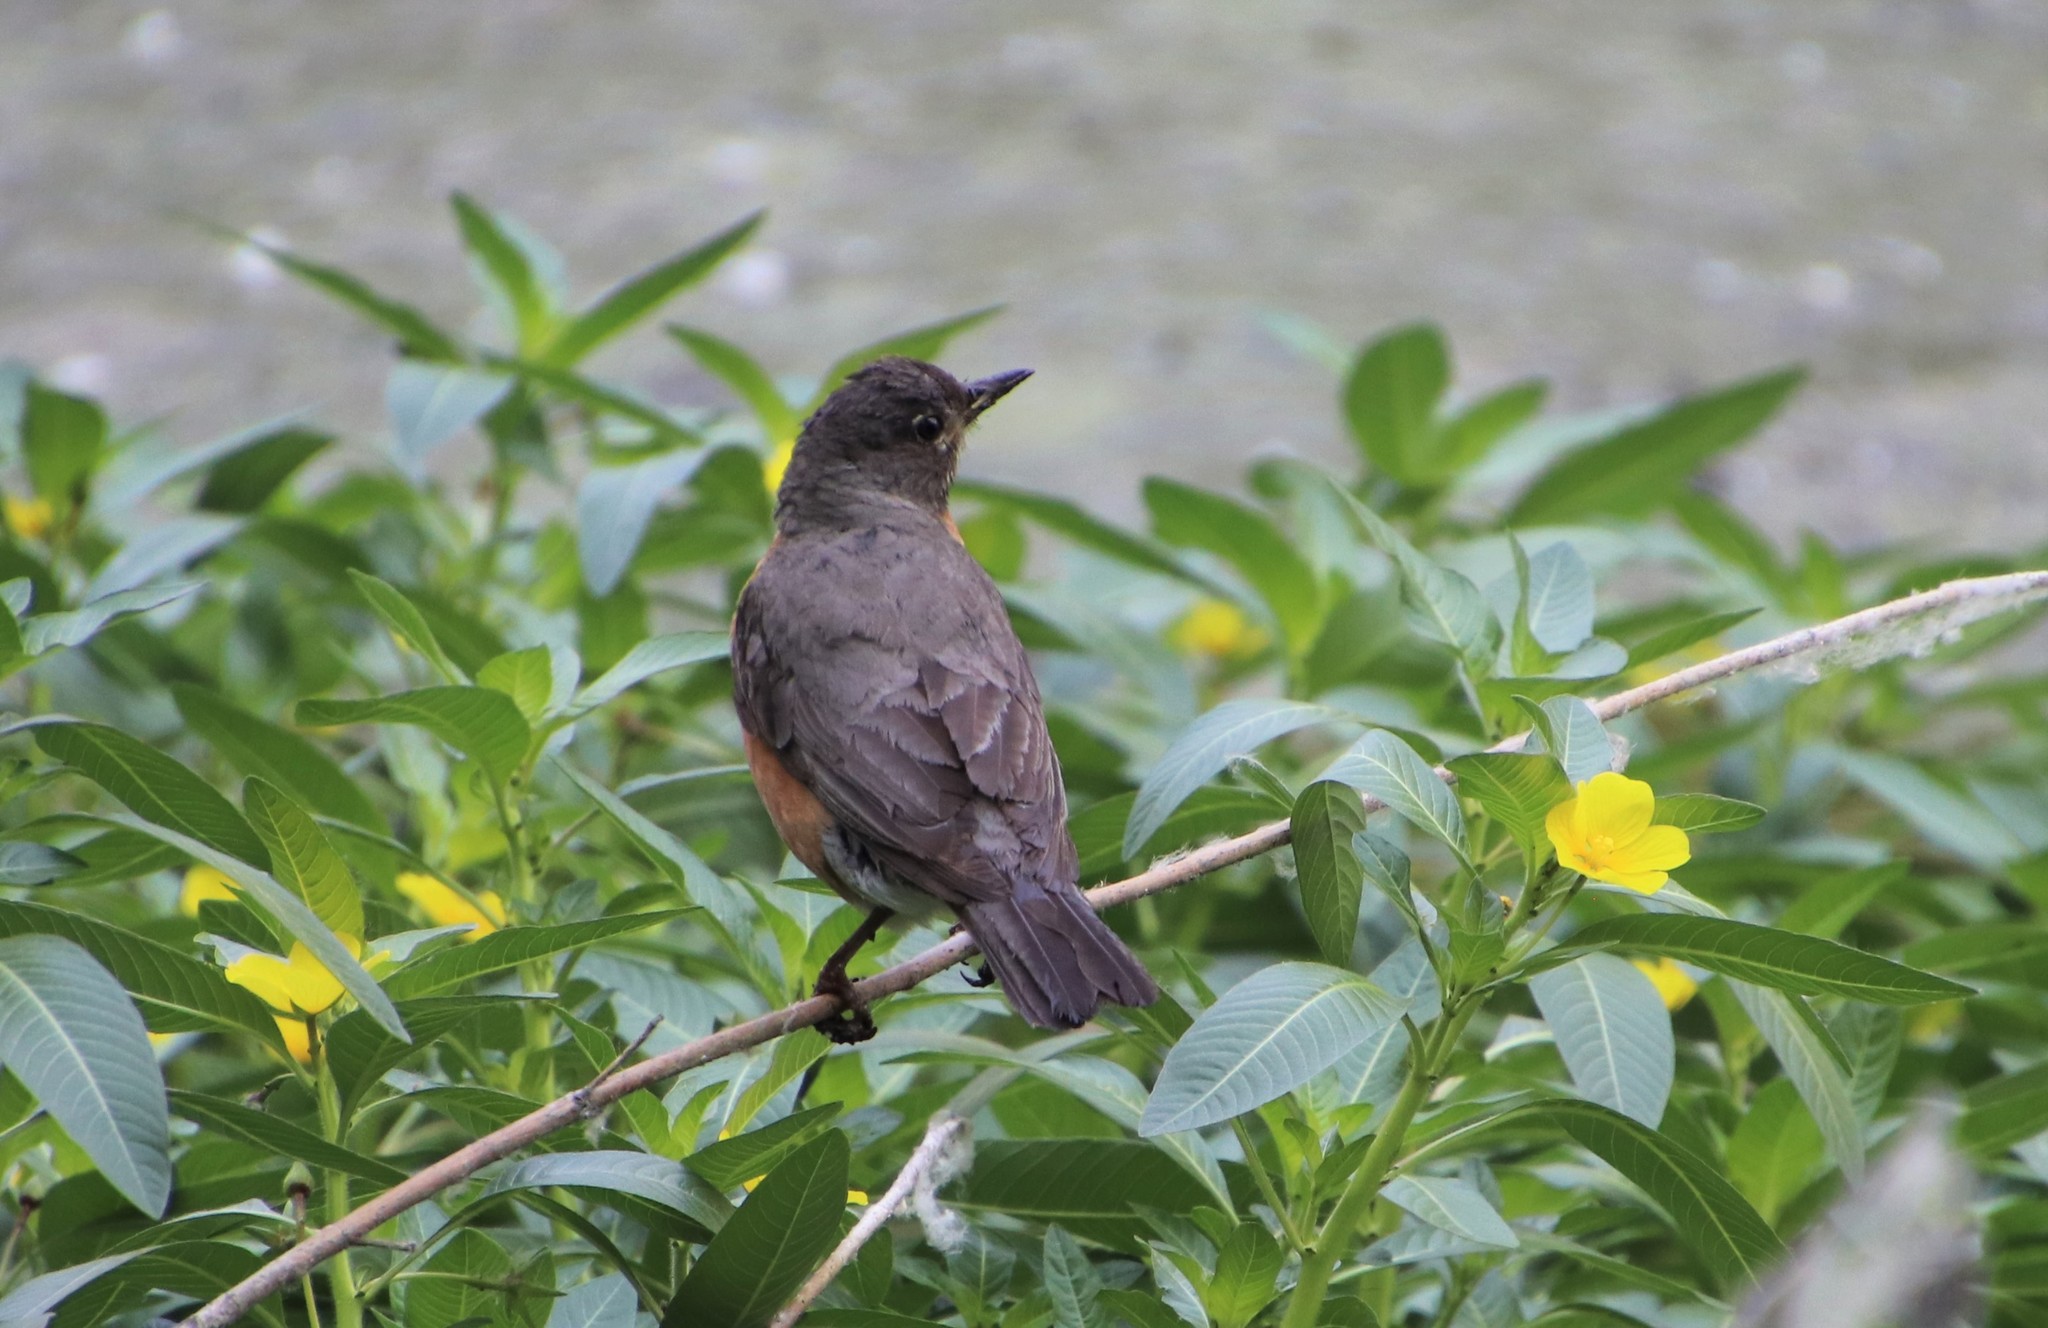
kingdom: Animalia
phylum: Chordata
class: Aves
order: Passeriformes
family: Turdidae
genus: Turdus
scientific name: Turdus migratorius
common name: American robin
